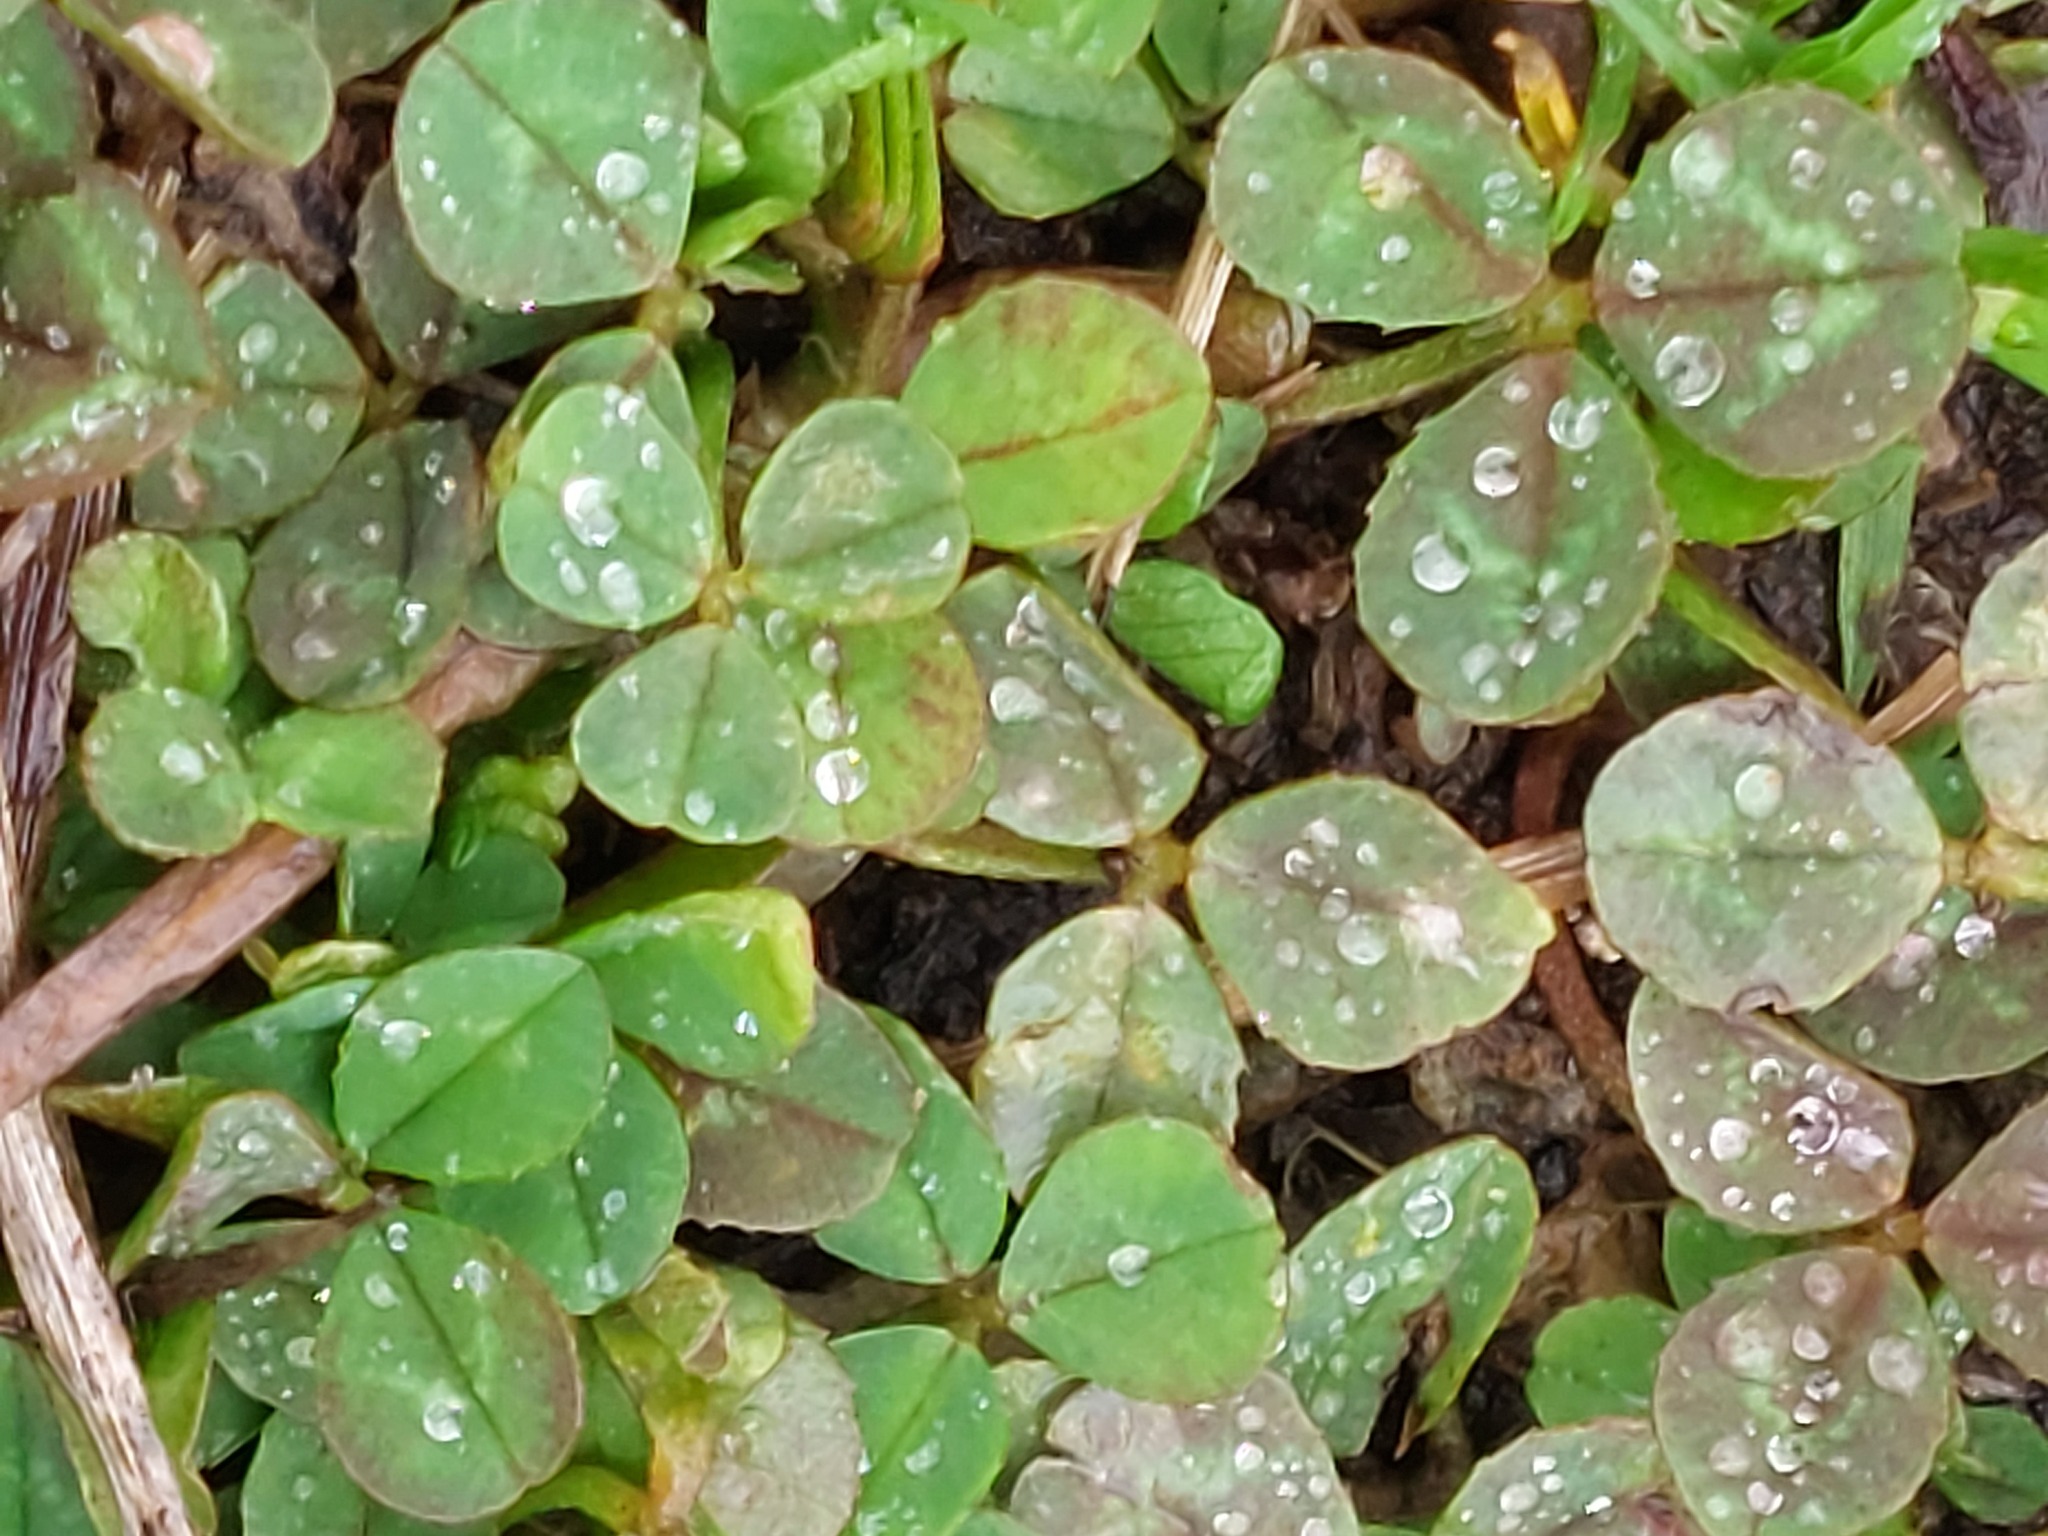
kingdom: Plantae
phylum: Tracheophyta
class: Magnoliopsida
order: Fabales
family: Fabaceae
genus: Trifolium
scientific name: Trifolium repens
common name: White clover
